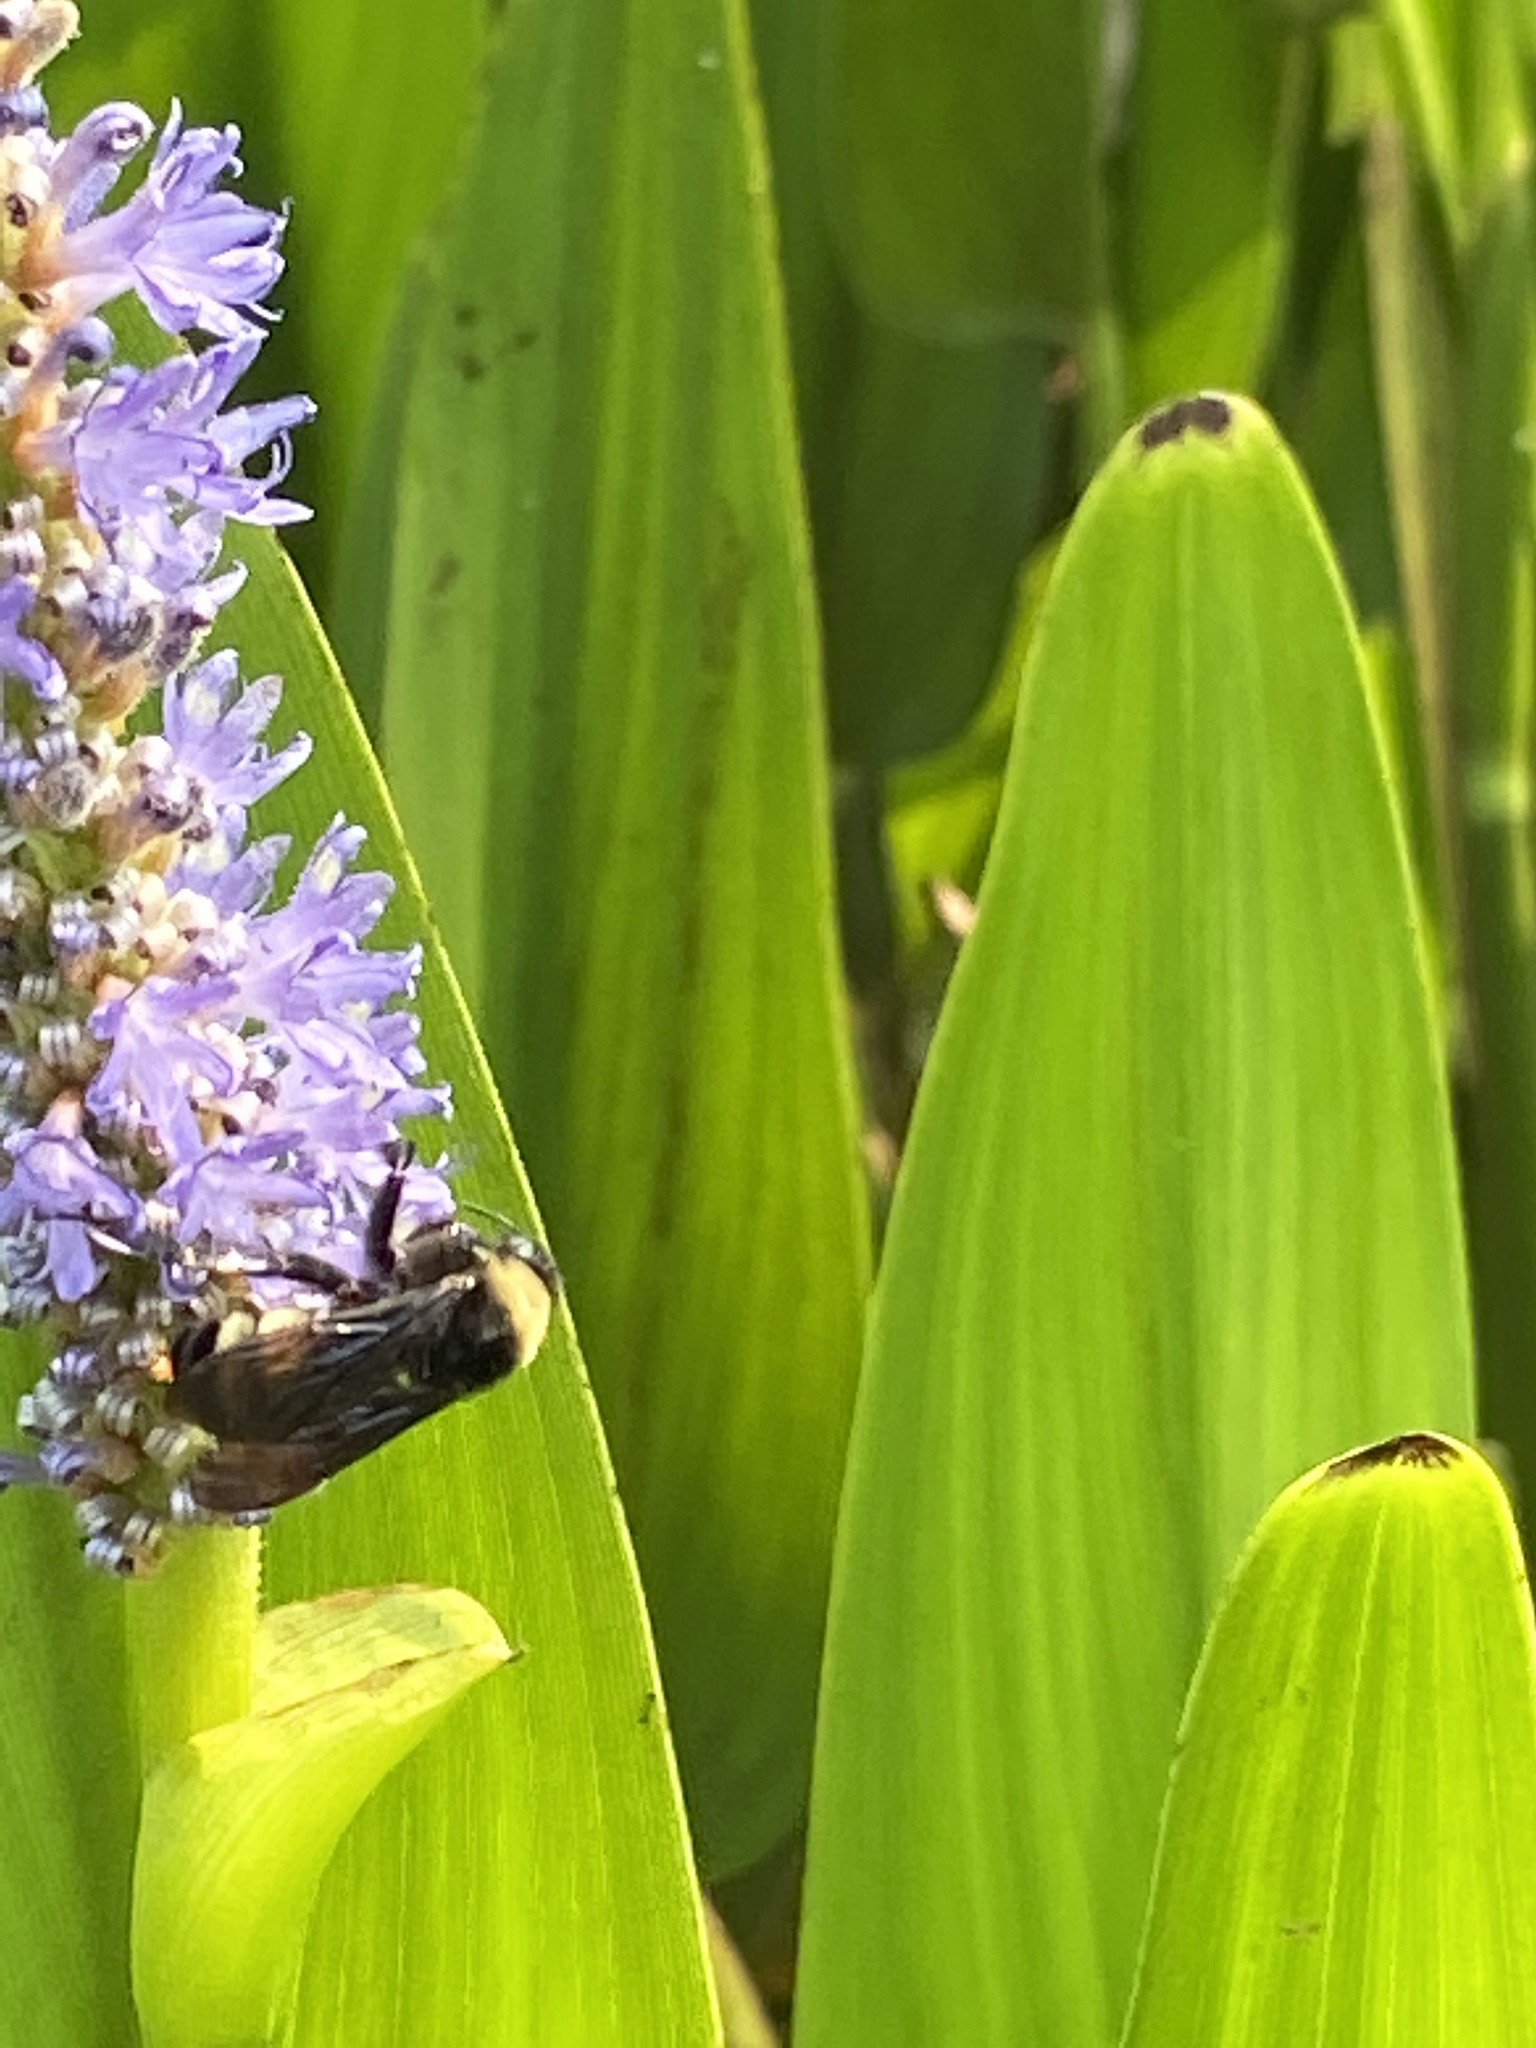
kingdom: Animalia
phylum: Arthropoda
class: Insecta
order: Hymenoptera
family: Apidae
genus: Bombus
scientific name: Bombus pensylvanicus
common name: Bumble bee
